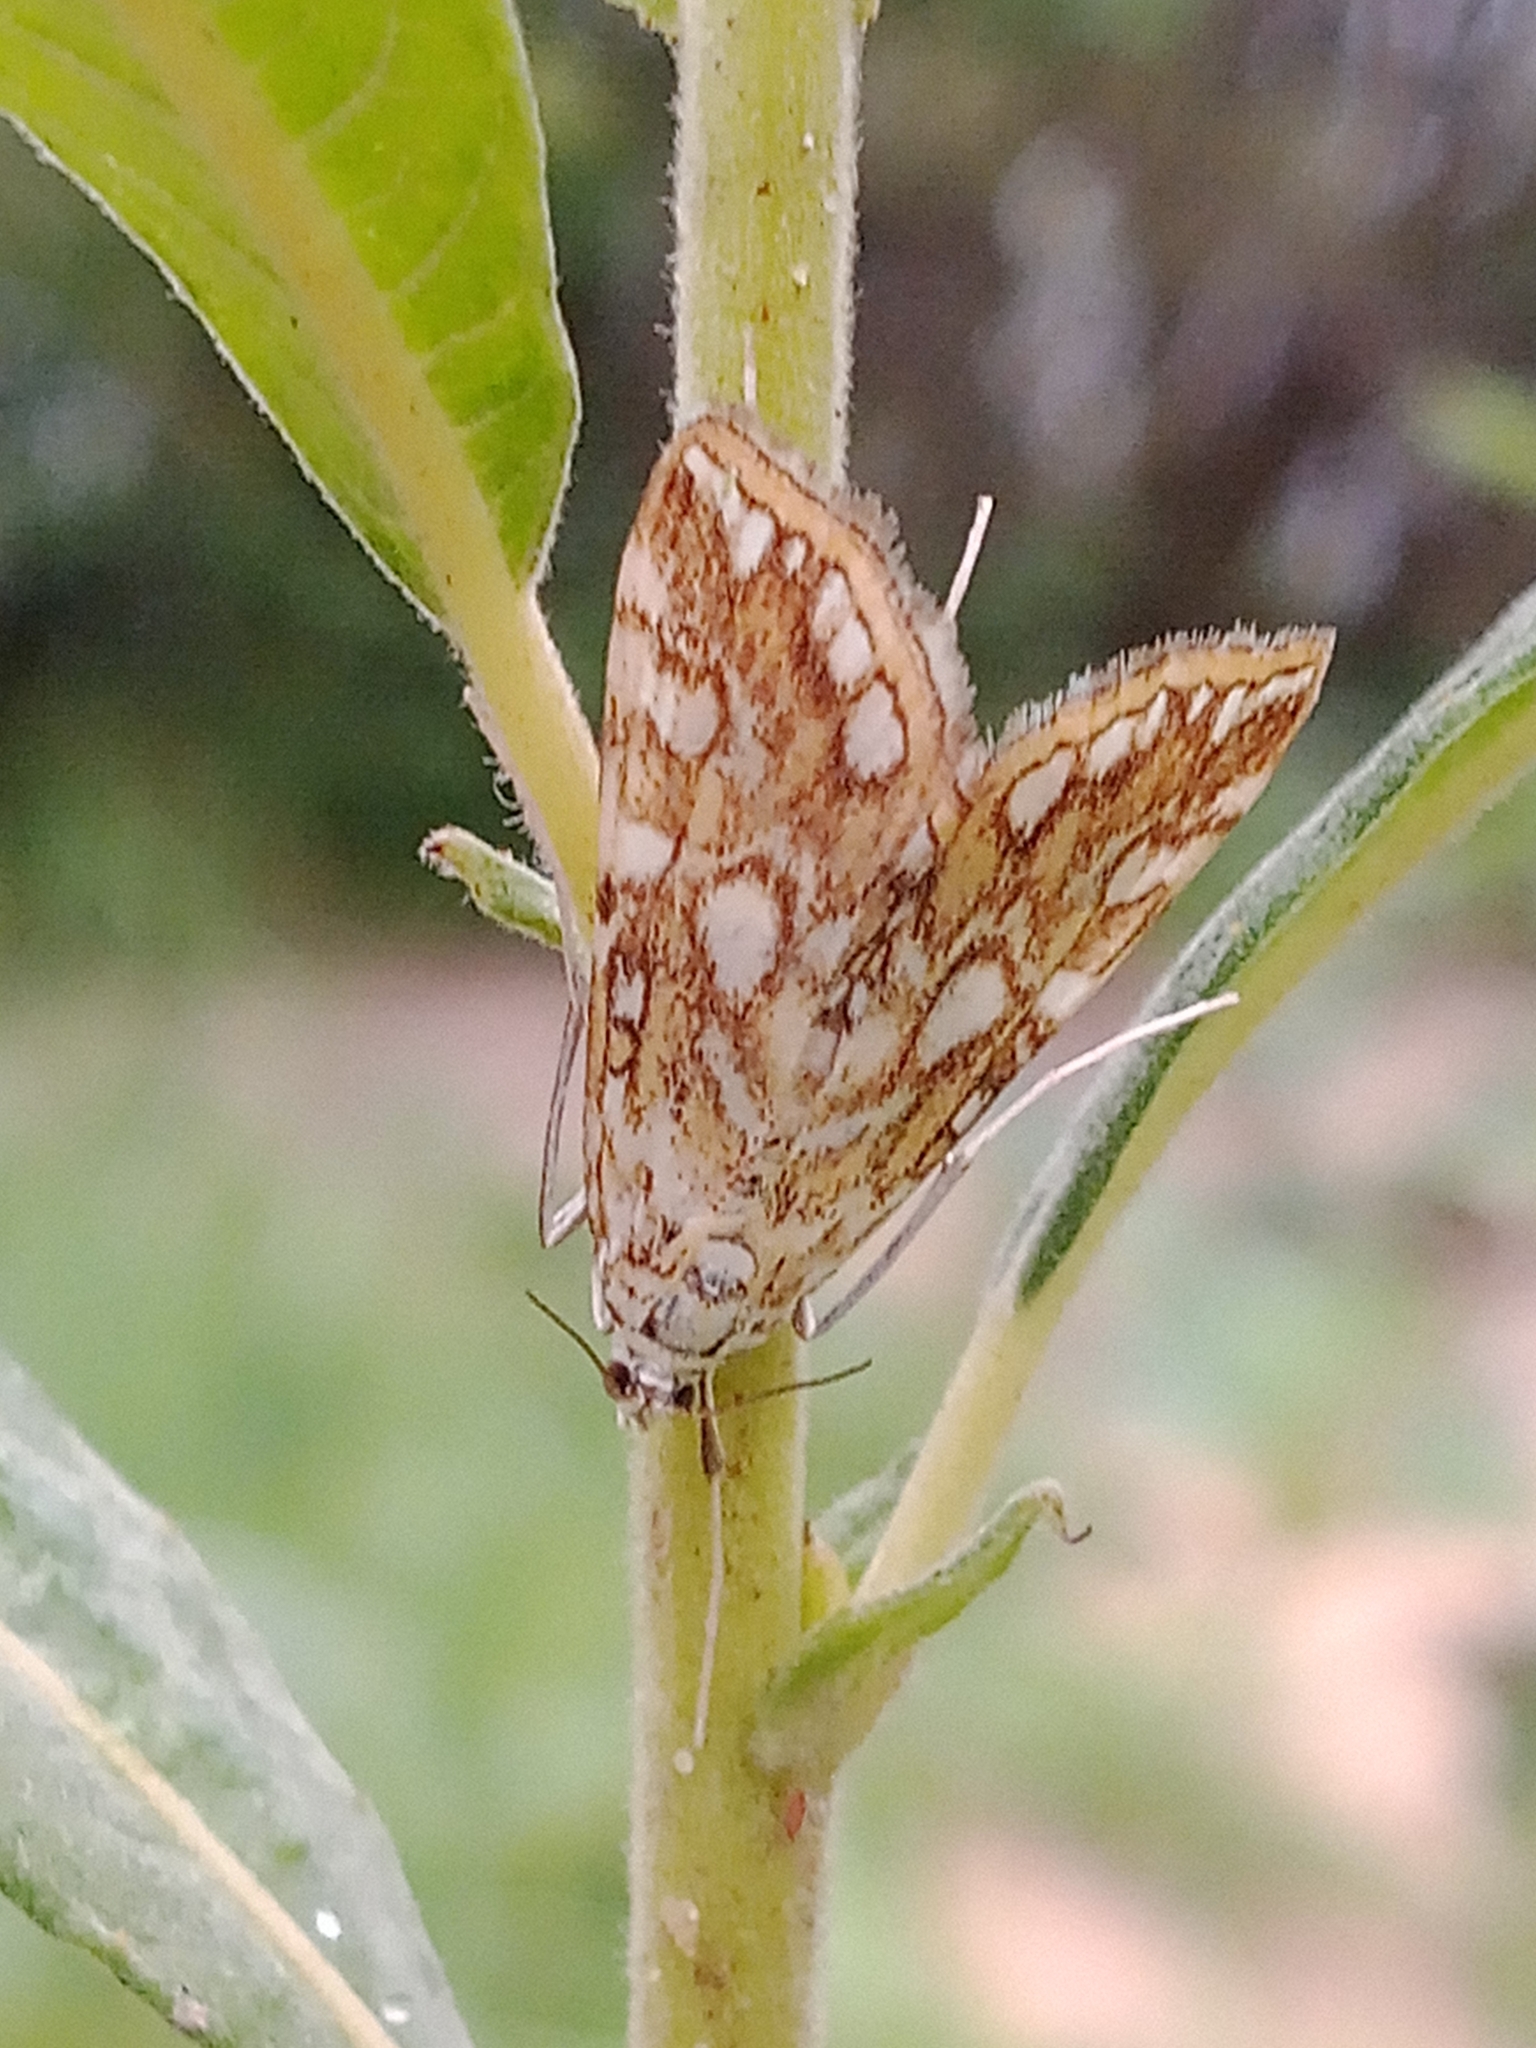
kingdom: Animalia
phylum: Arthropoda
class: Insecta
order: Lepidoptera
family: Crambidae
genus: Elophila
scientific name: Elophila nymphaeata
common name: Brown china-mark
